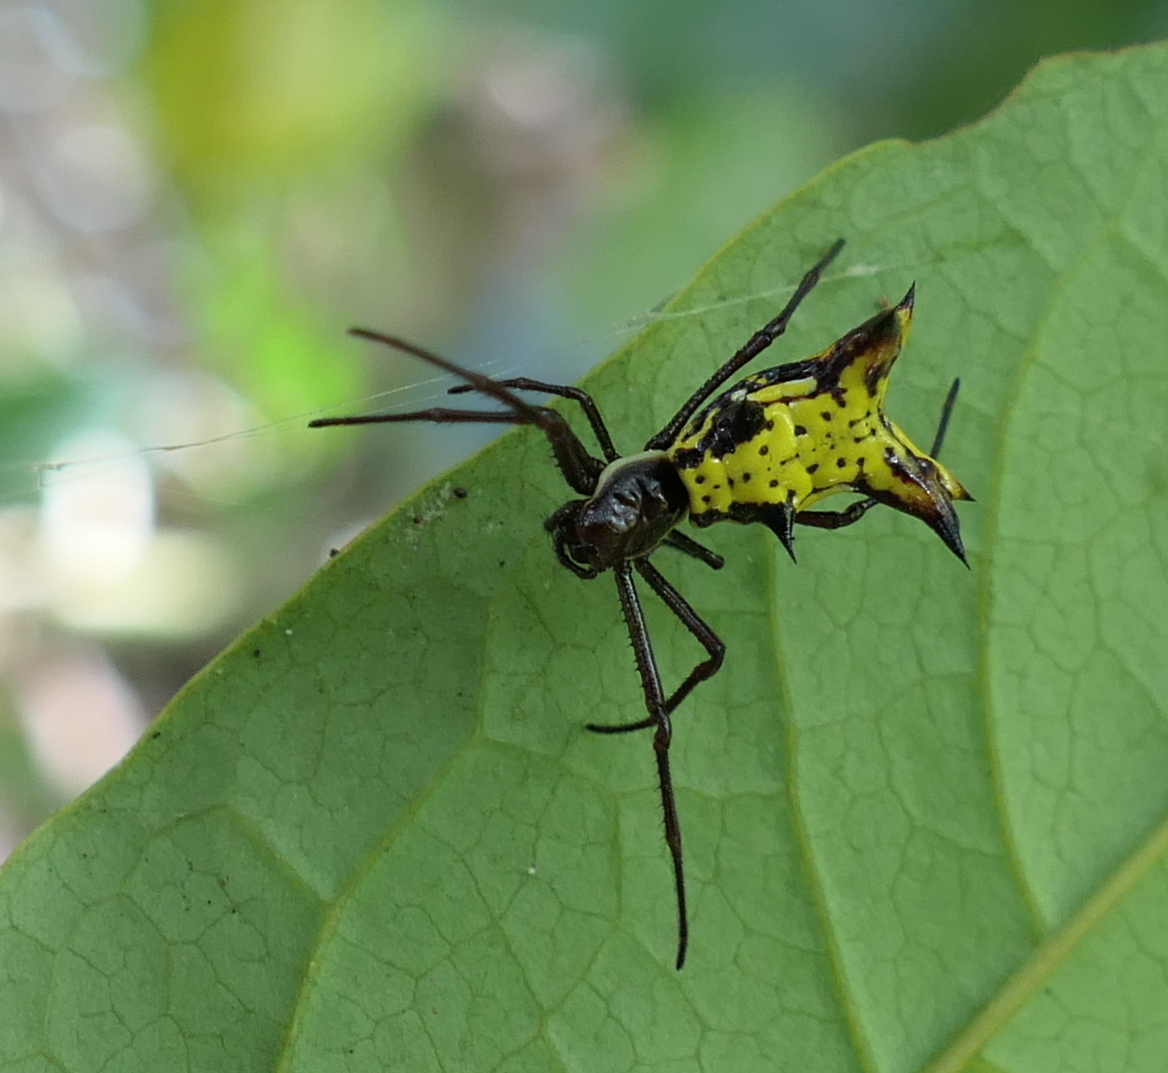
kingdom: Animalia
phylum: Arthropoda
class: Arachnida
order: Araneae
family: Araneidae
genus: Micrathena
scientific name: Micrathena fissispina
